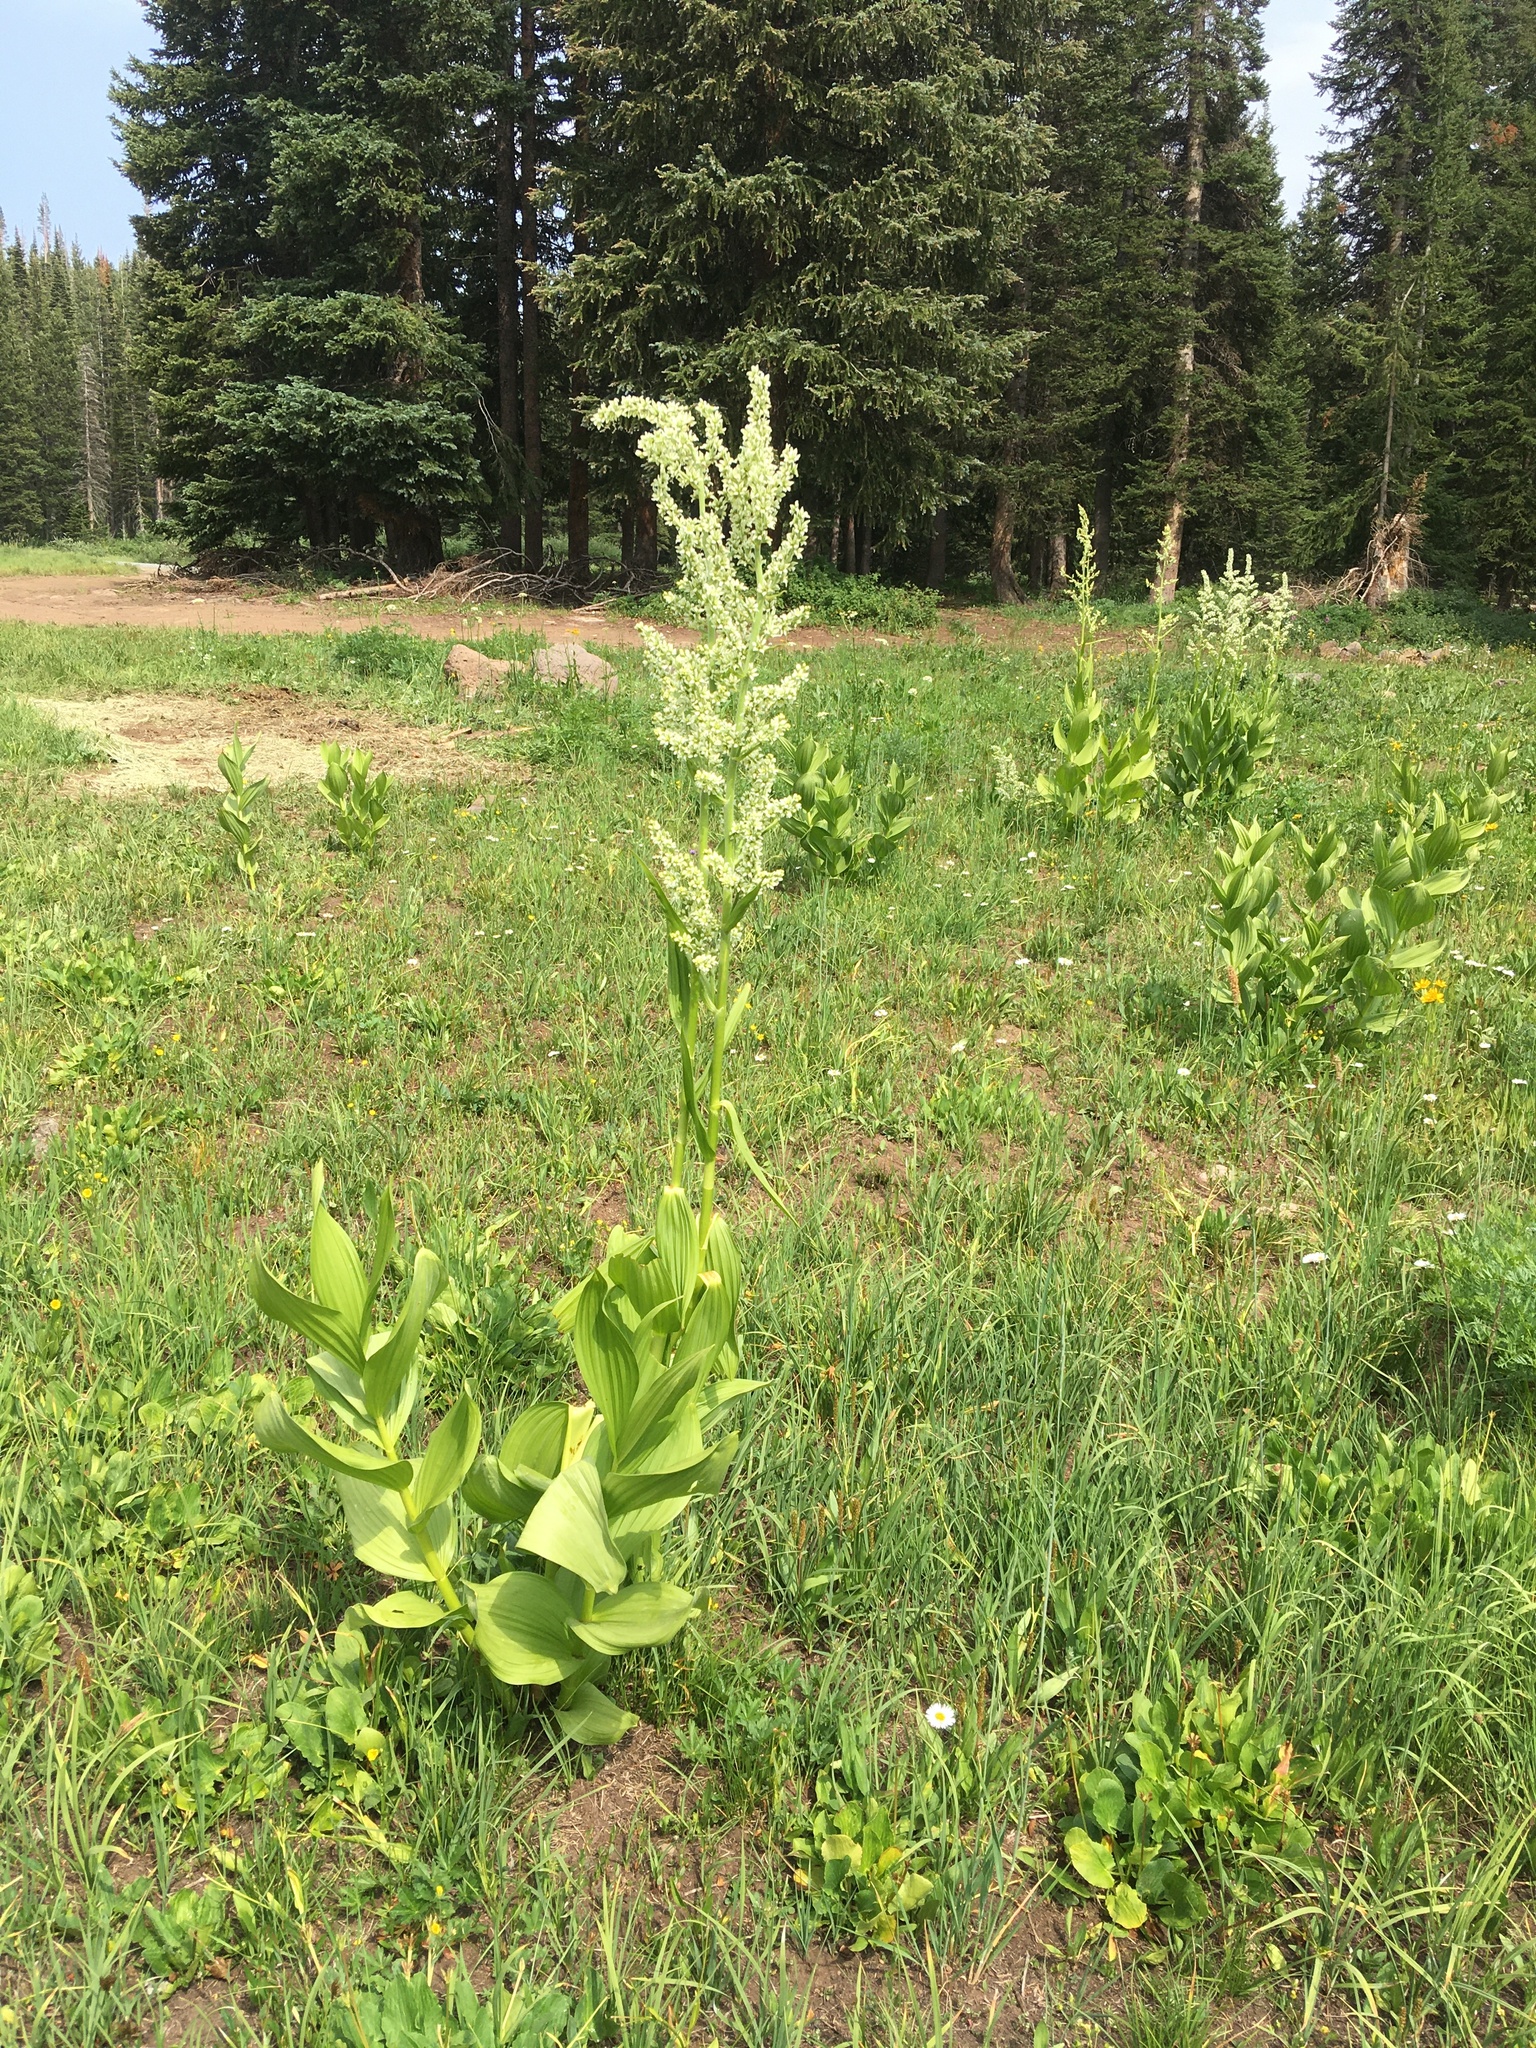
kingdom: Plantae
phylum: Tracheophyta
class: Liliopsida
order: Liliales
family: Melanthiaceae
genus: Veratrum
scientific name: Veratrum californicum
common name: California veratrum
